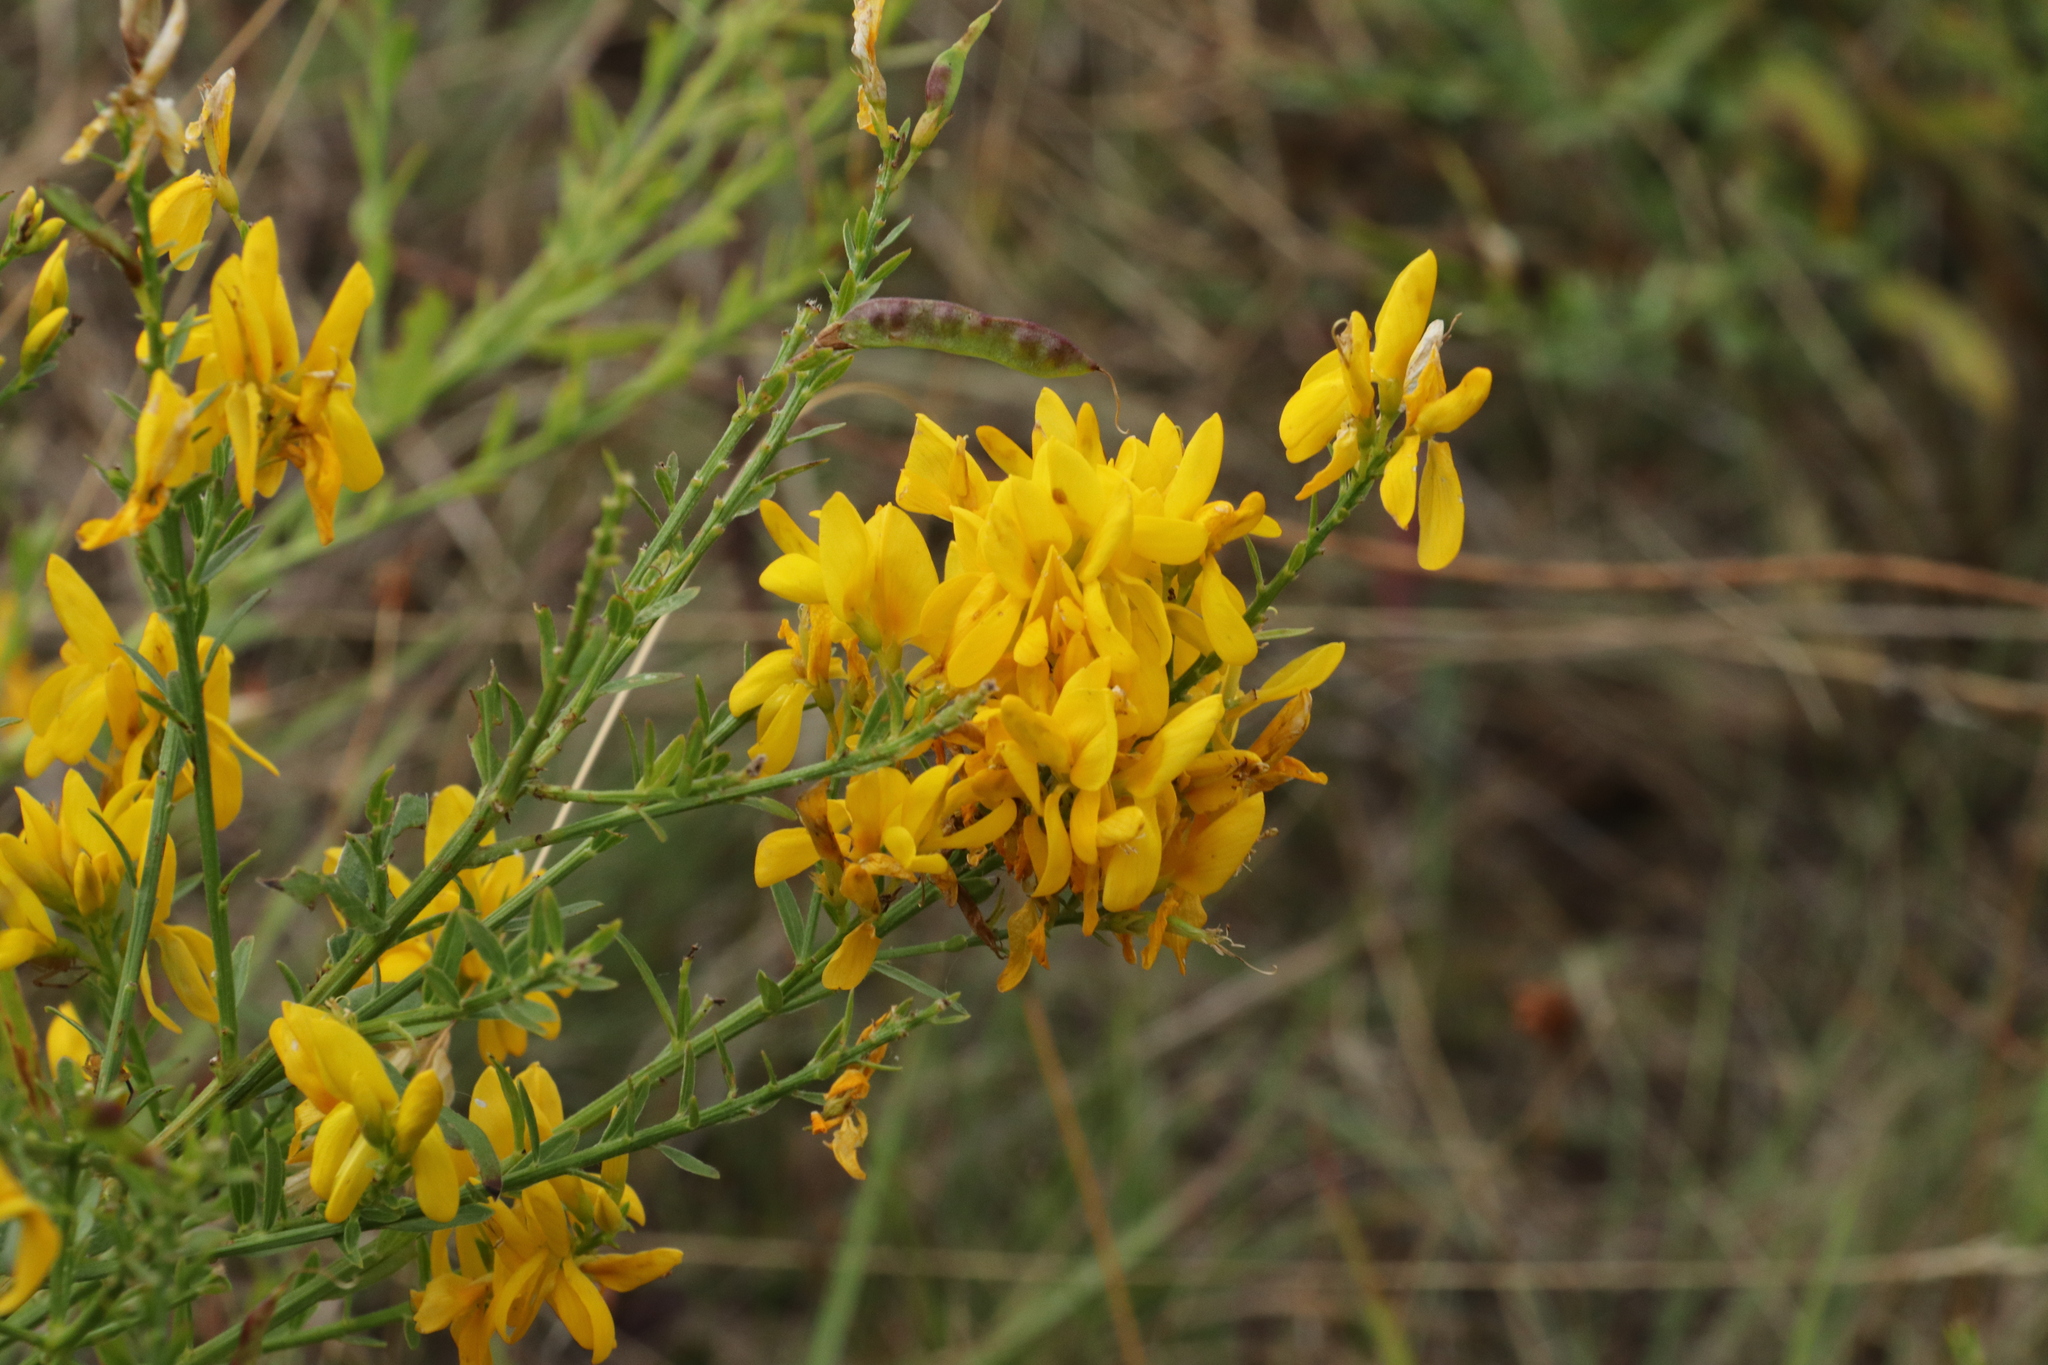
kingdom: Plantae
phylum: Tracheophyta
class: Magnoliopsida
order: Fabales
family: Fabaceae
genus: Genista
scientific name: Genista tinctoria
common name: Dyer's greenweed
